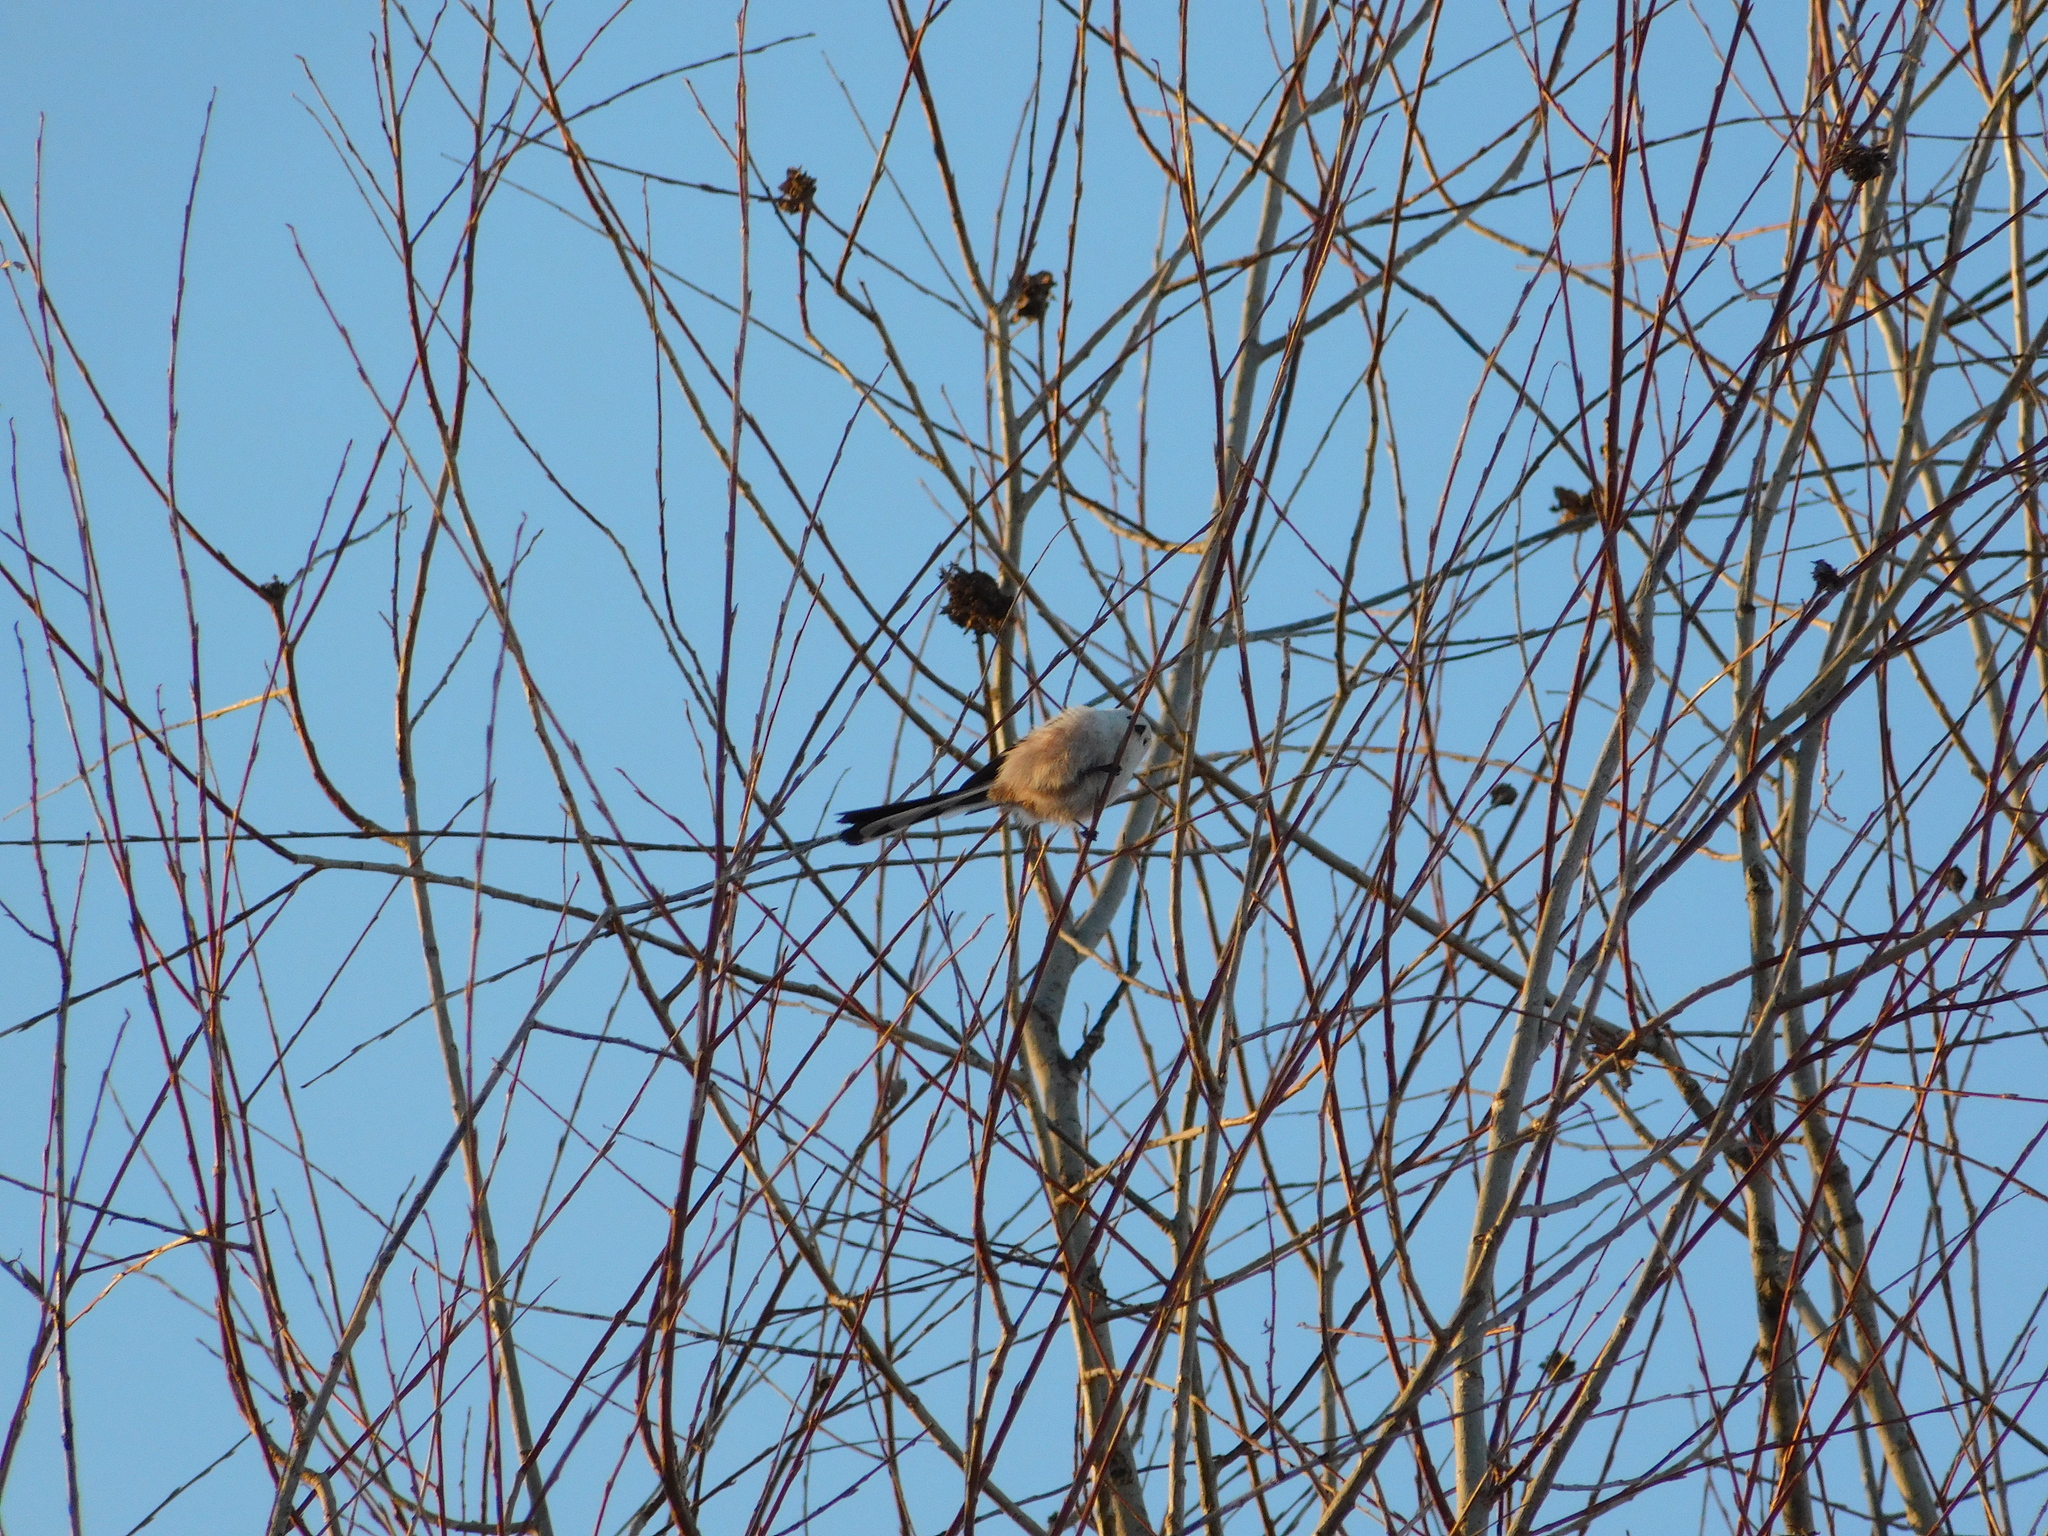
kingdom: Animalia
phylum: Chordata
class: Aves
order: Passeriformes
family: Aegithalidae
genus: Aegithalos
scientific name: Aegithalos caudatus
